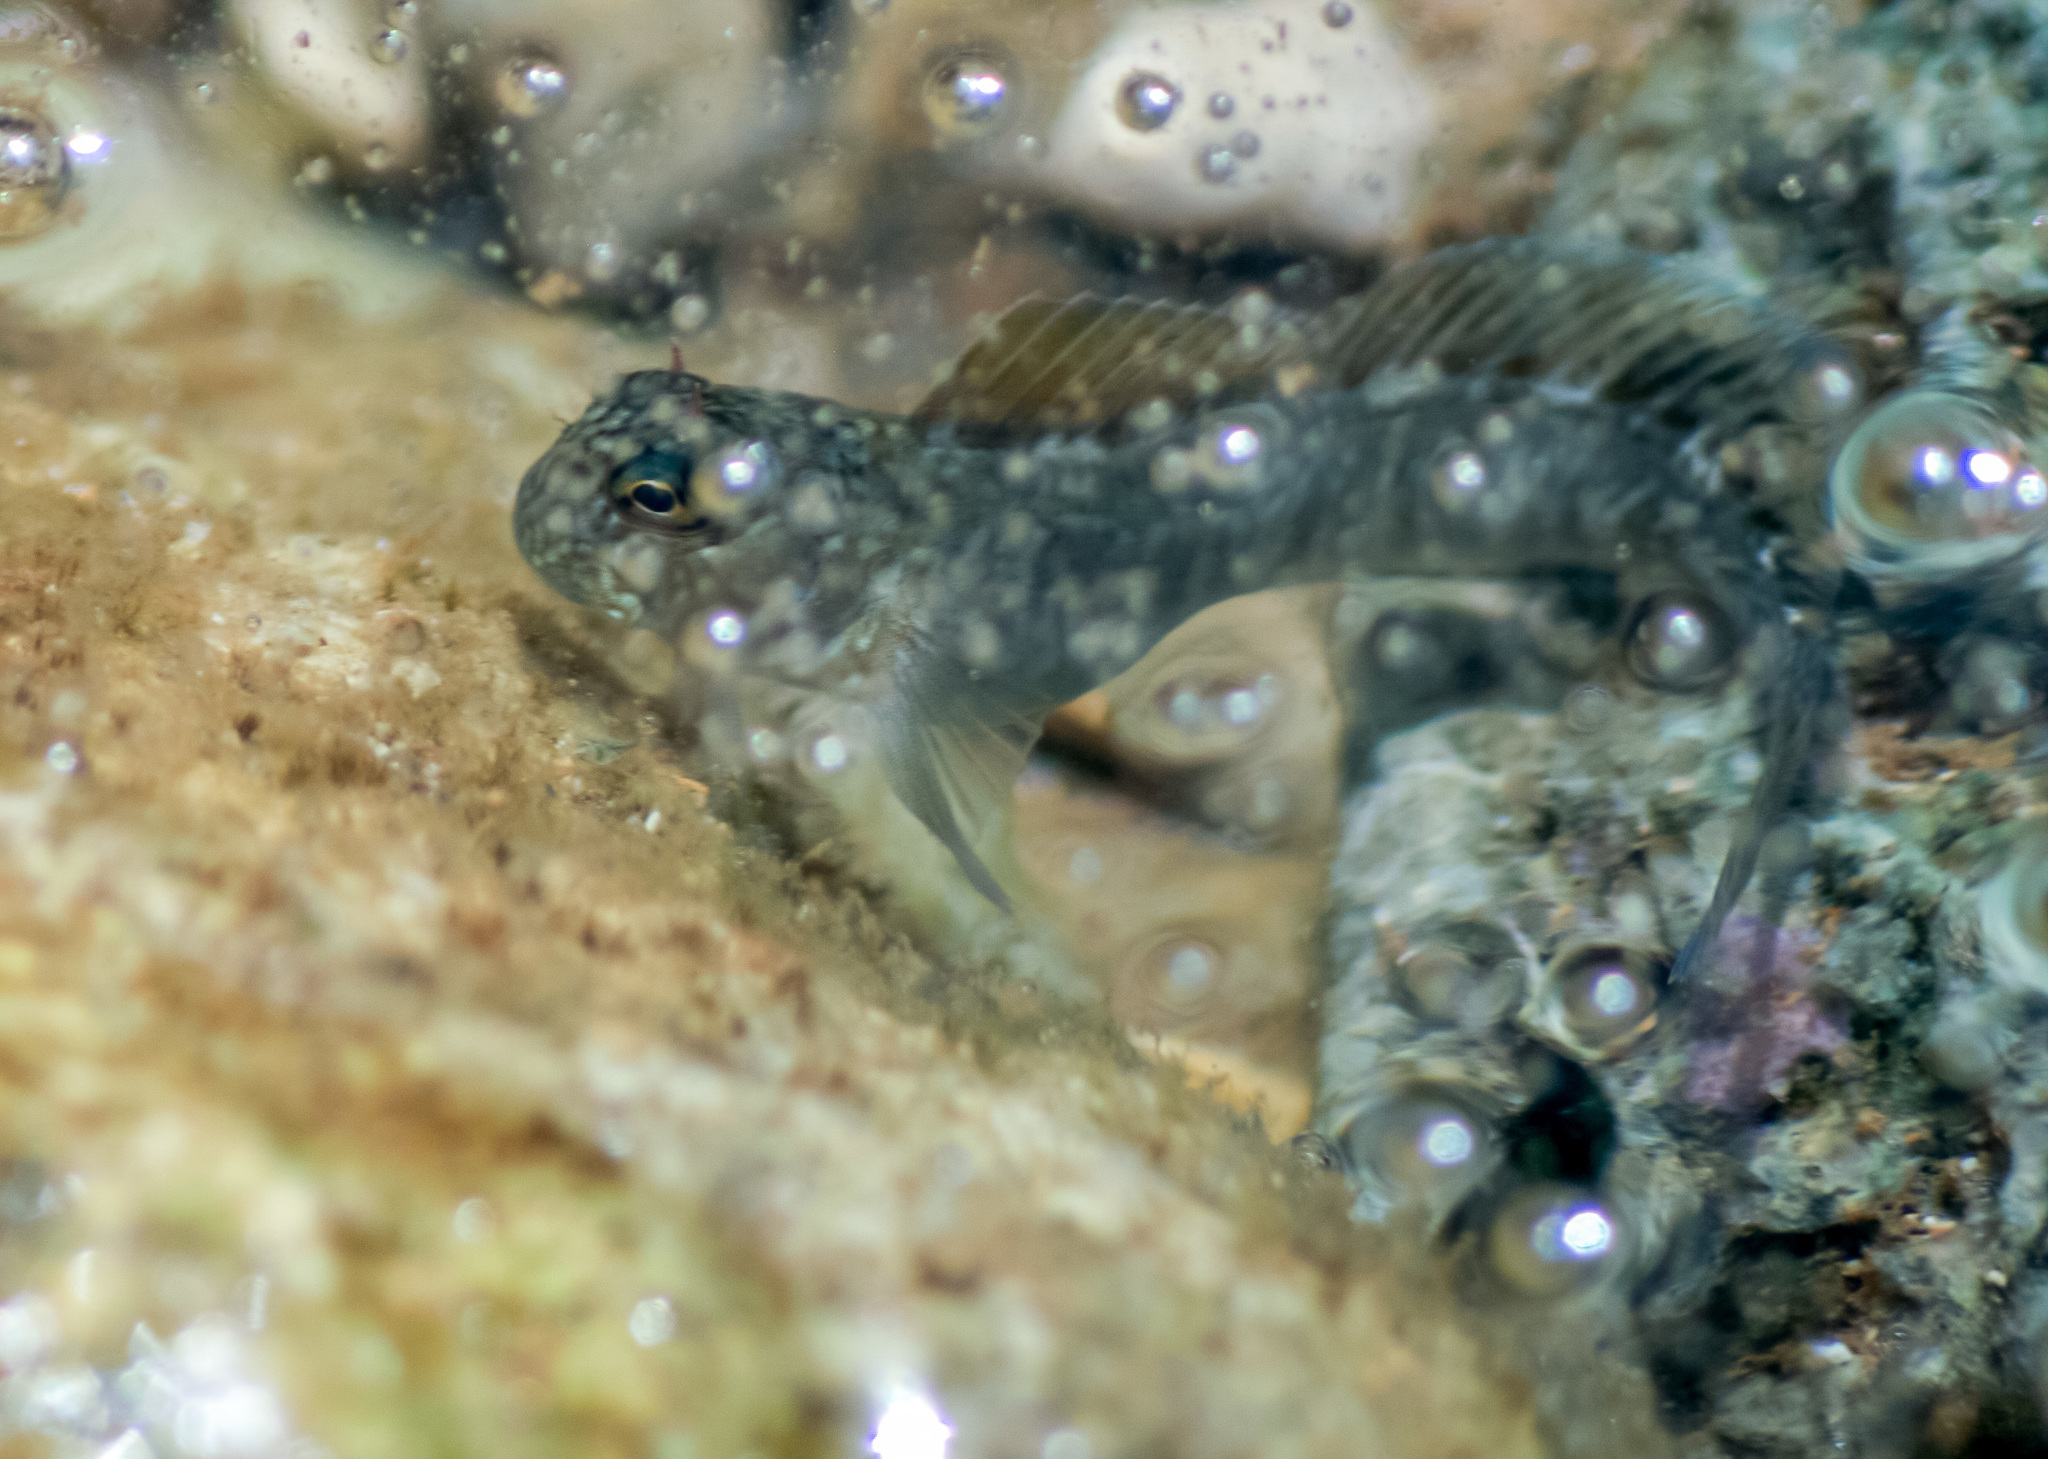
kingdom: Animalia
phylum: Chordata
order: Perciformes
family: Blenniidae
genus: Istiblennius
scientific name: Istiblennius zebra
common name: Zebra blenny
